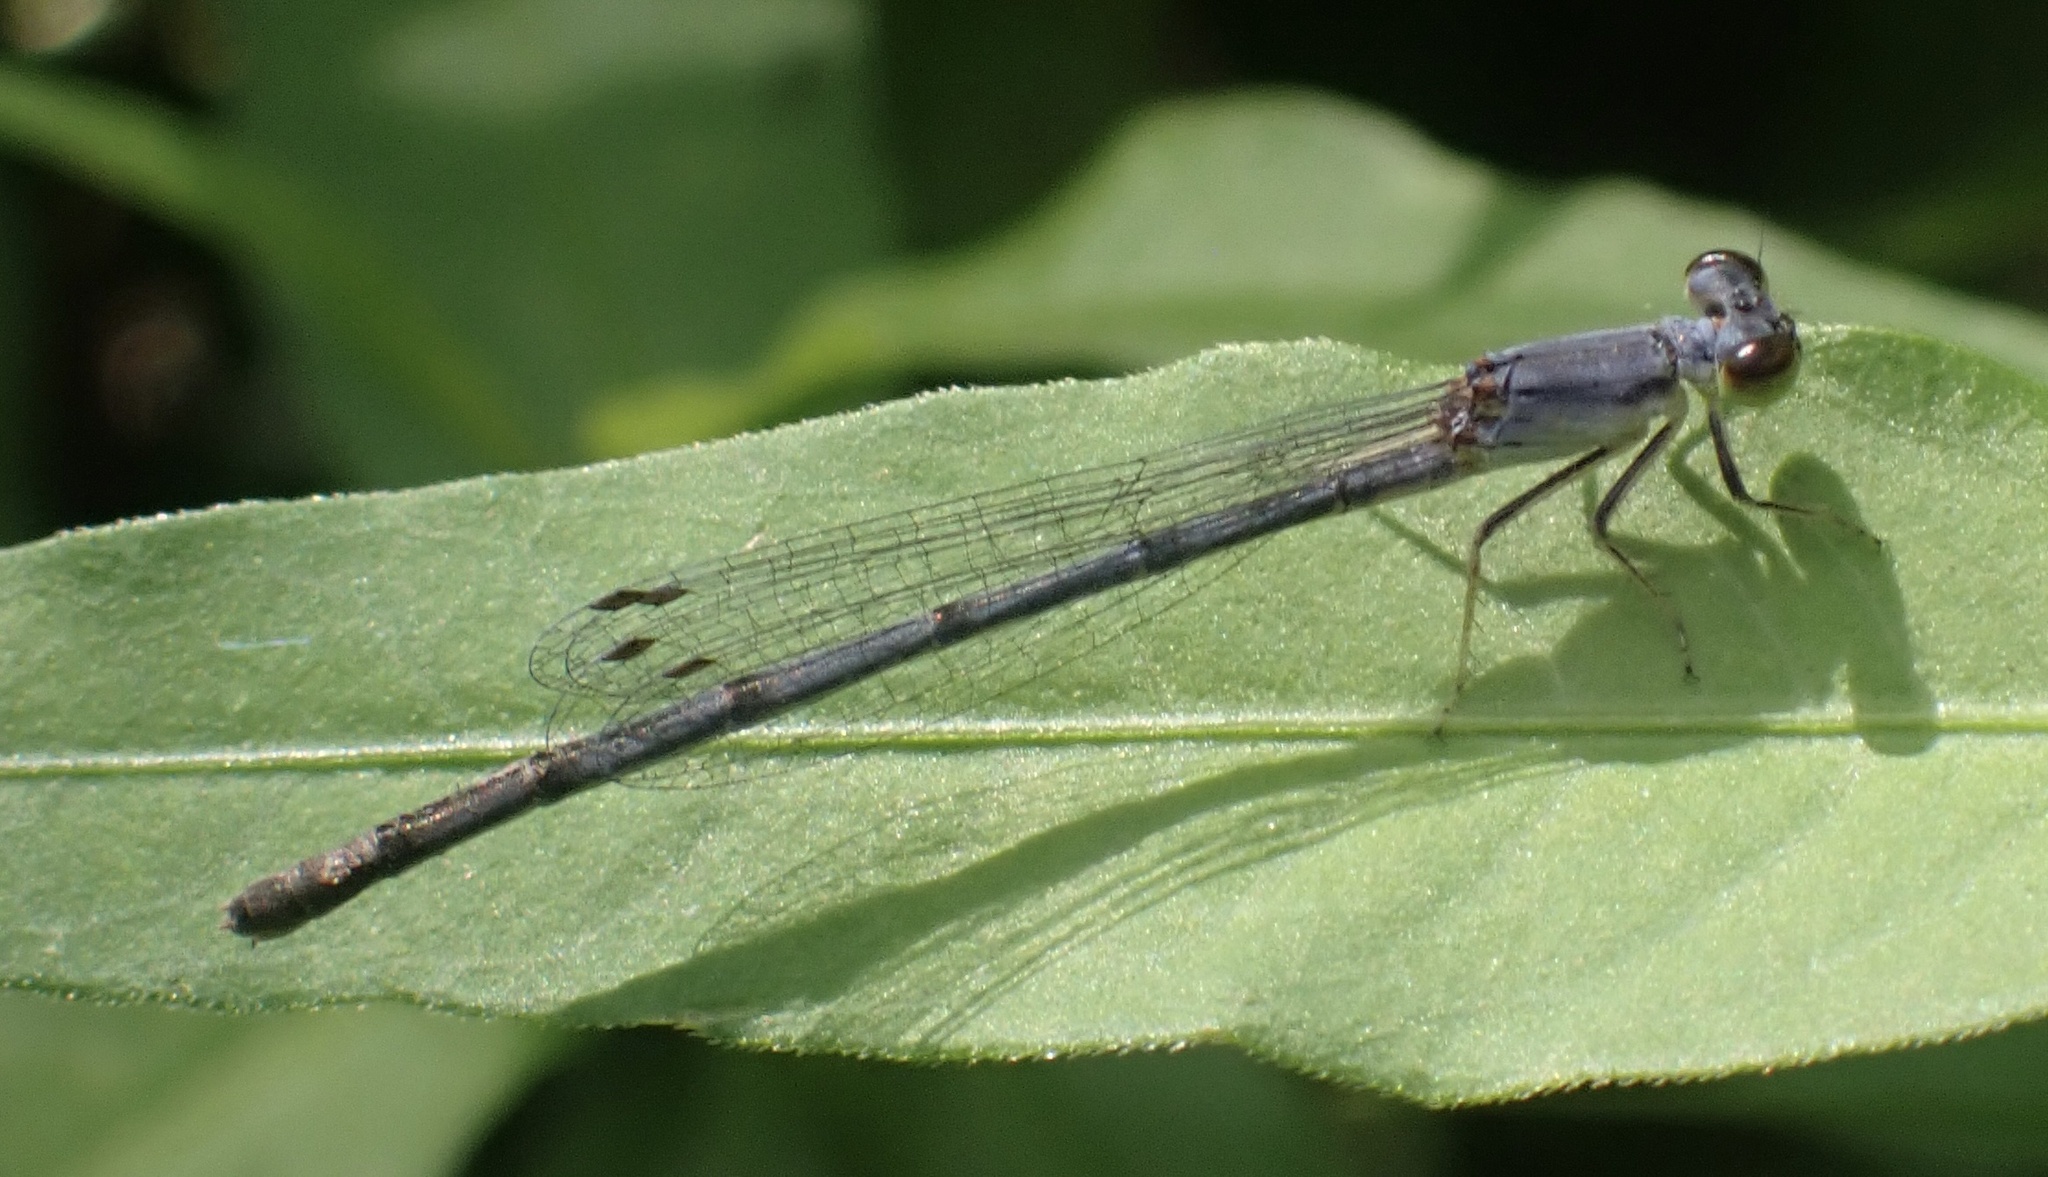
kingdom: Animalia
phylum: Arthropoda
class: Insecta
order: Odonata
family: Coenagrionidae
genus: Ischnura
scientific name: Ischnura posita
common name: Fragile forktail
